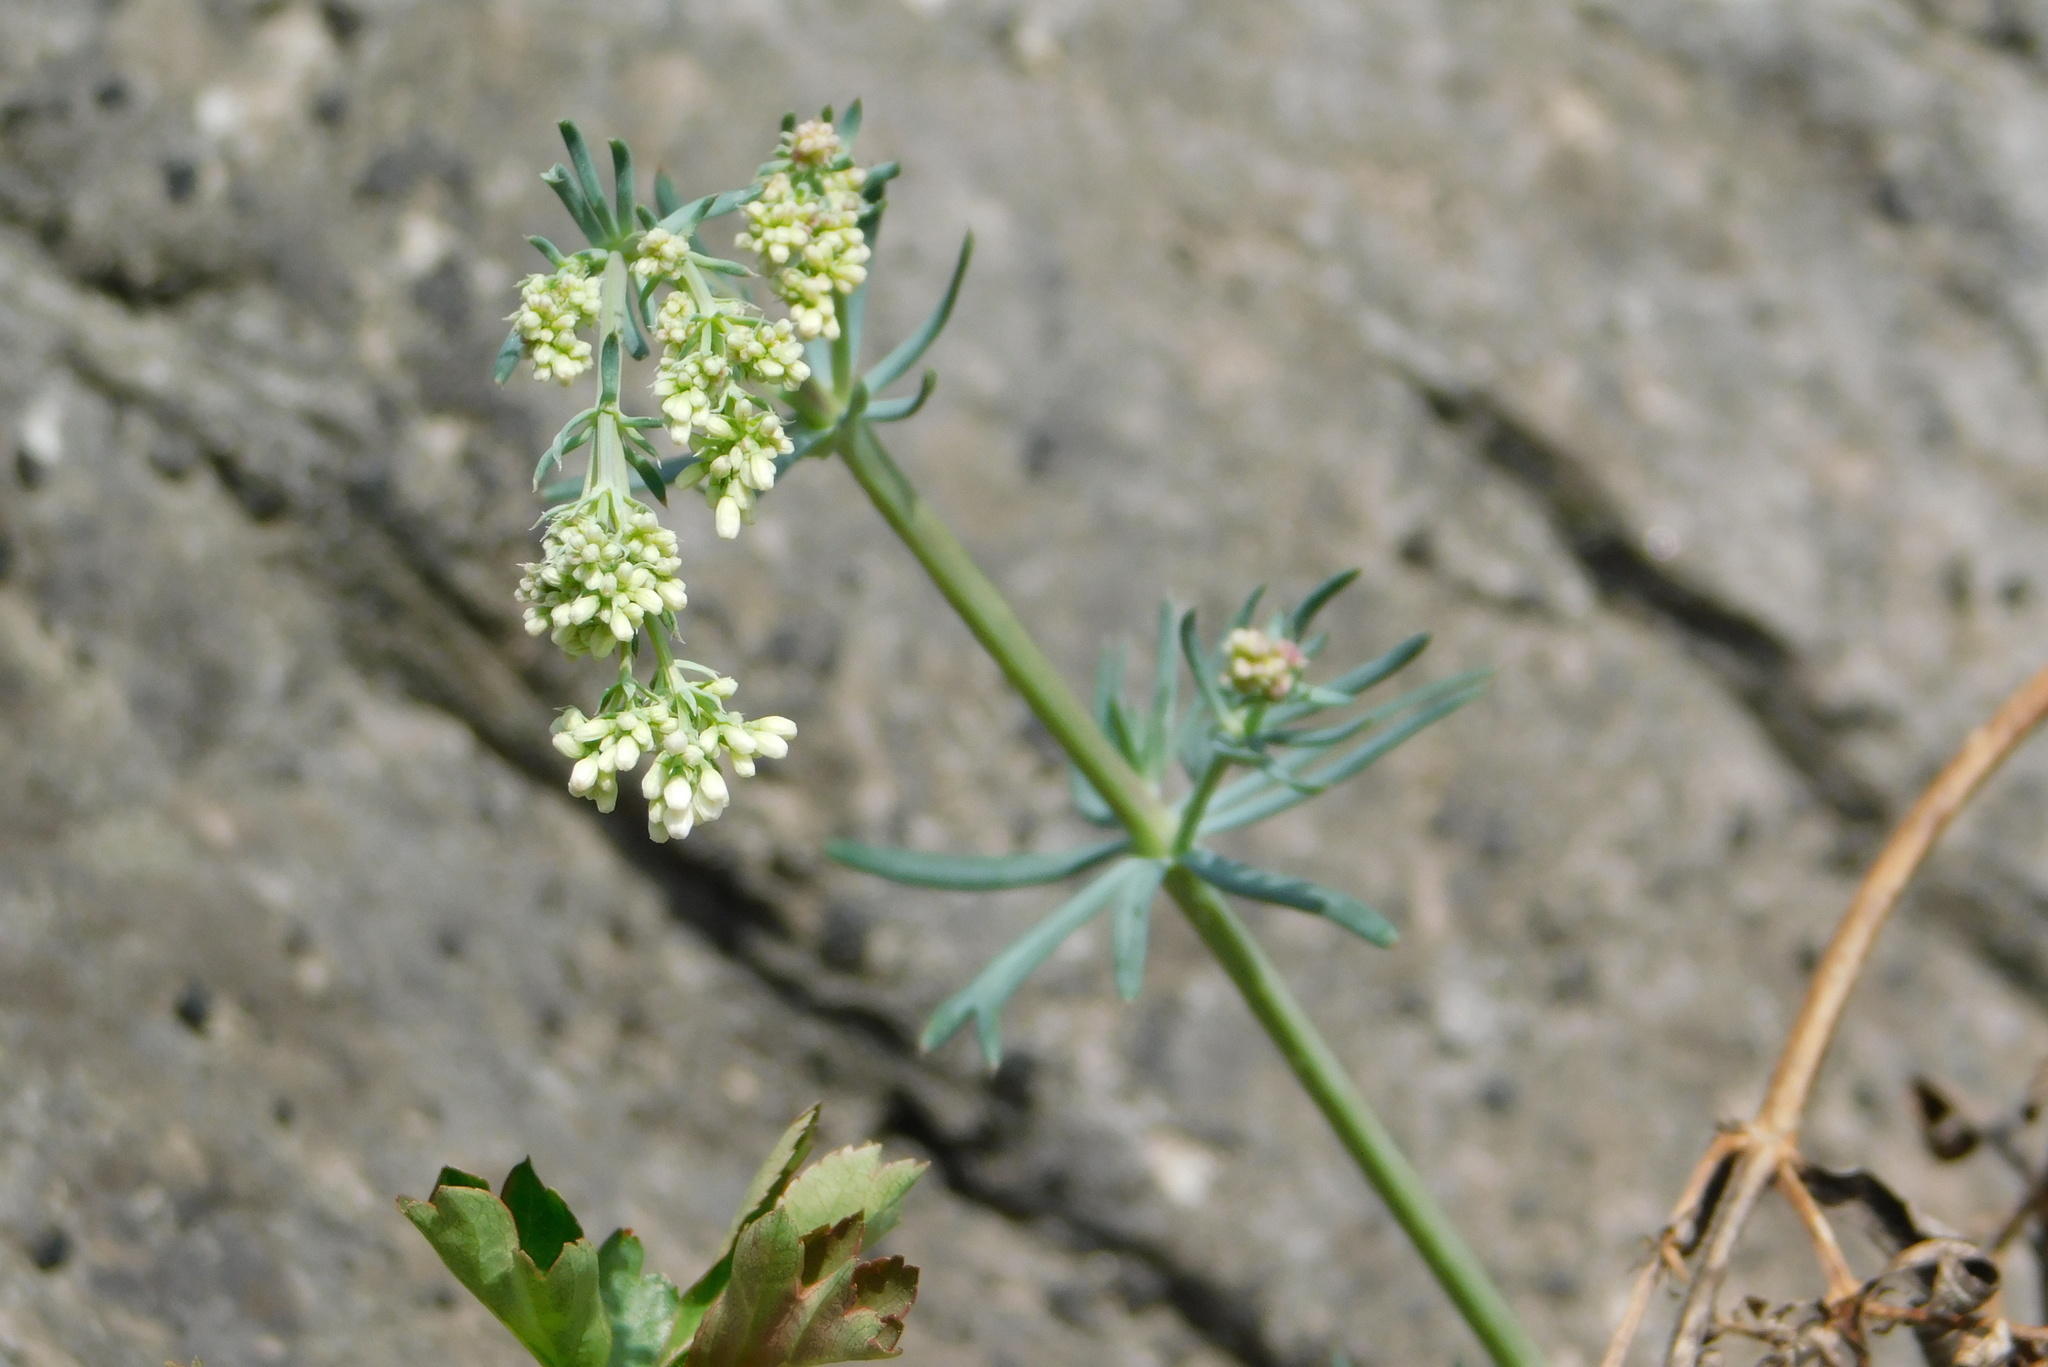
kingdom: Plantae
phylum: Tracheophyta
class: Magnoliopsida
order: Gentianales
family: Rubiaceae
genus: Galium
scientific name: Galium glaucum
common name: Waxy bedstraw
